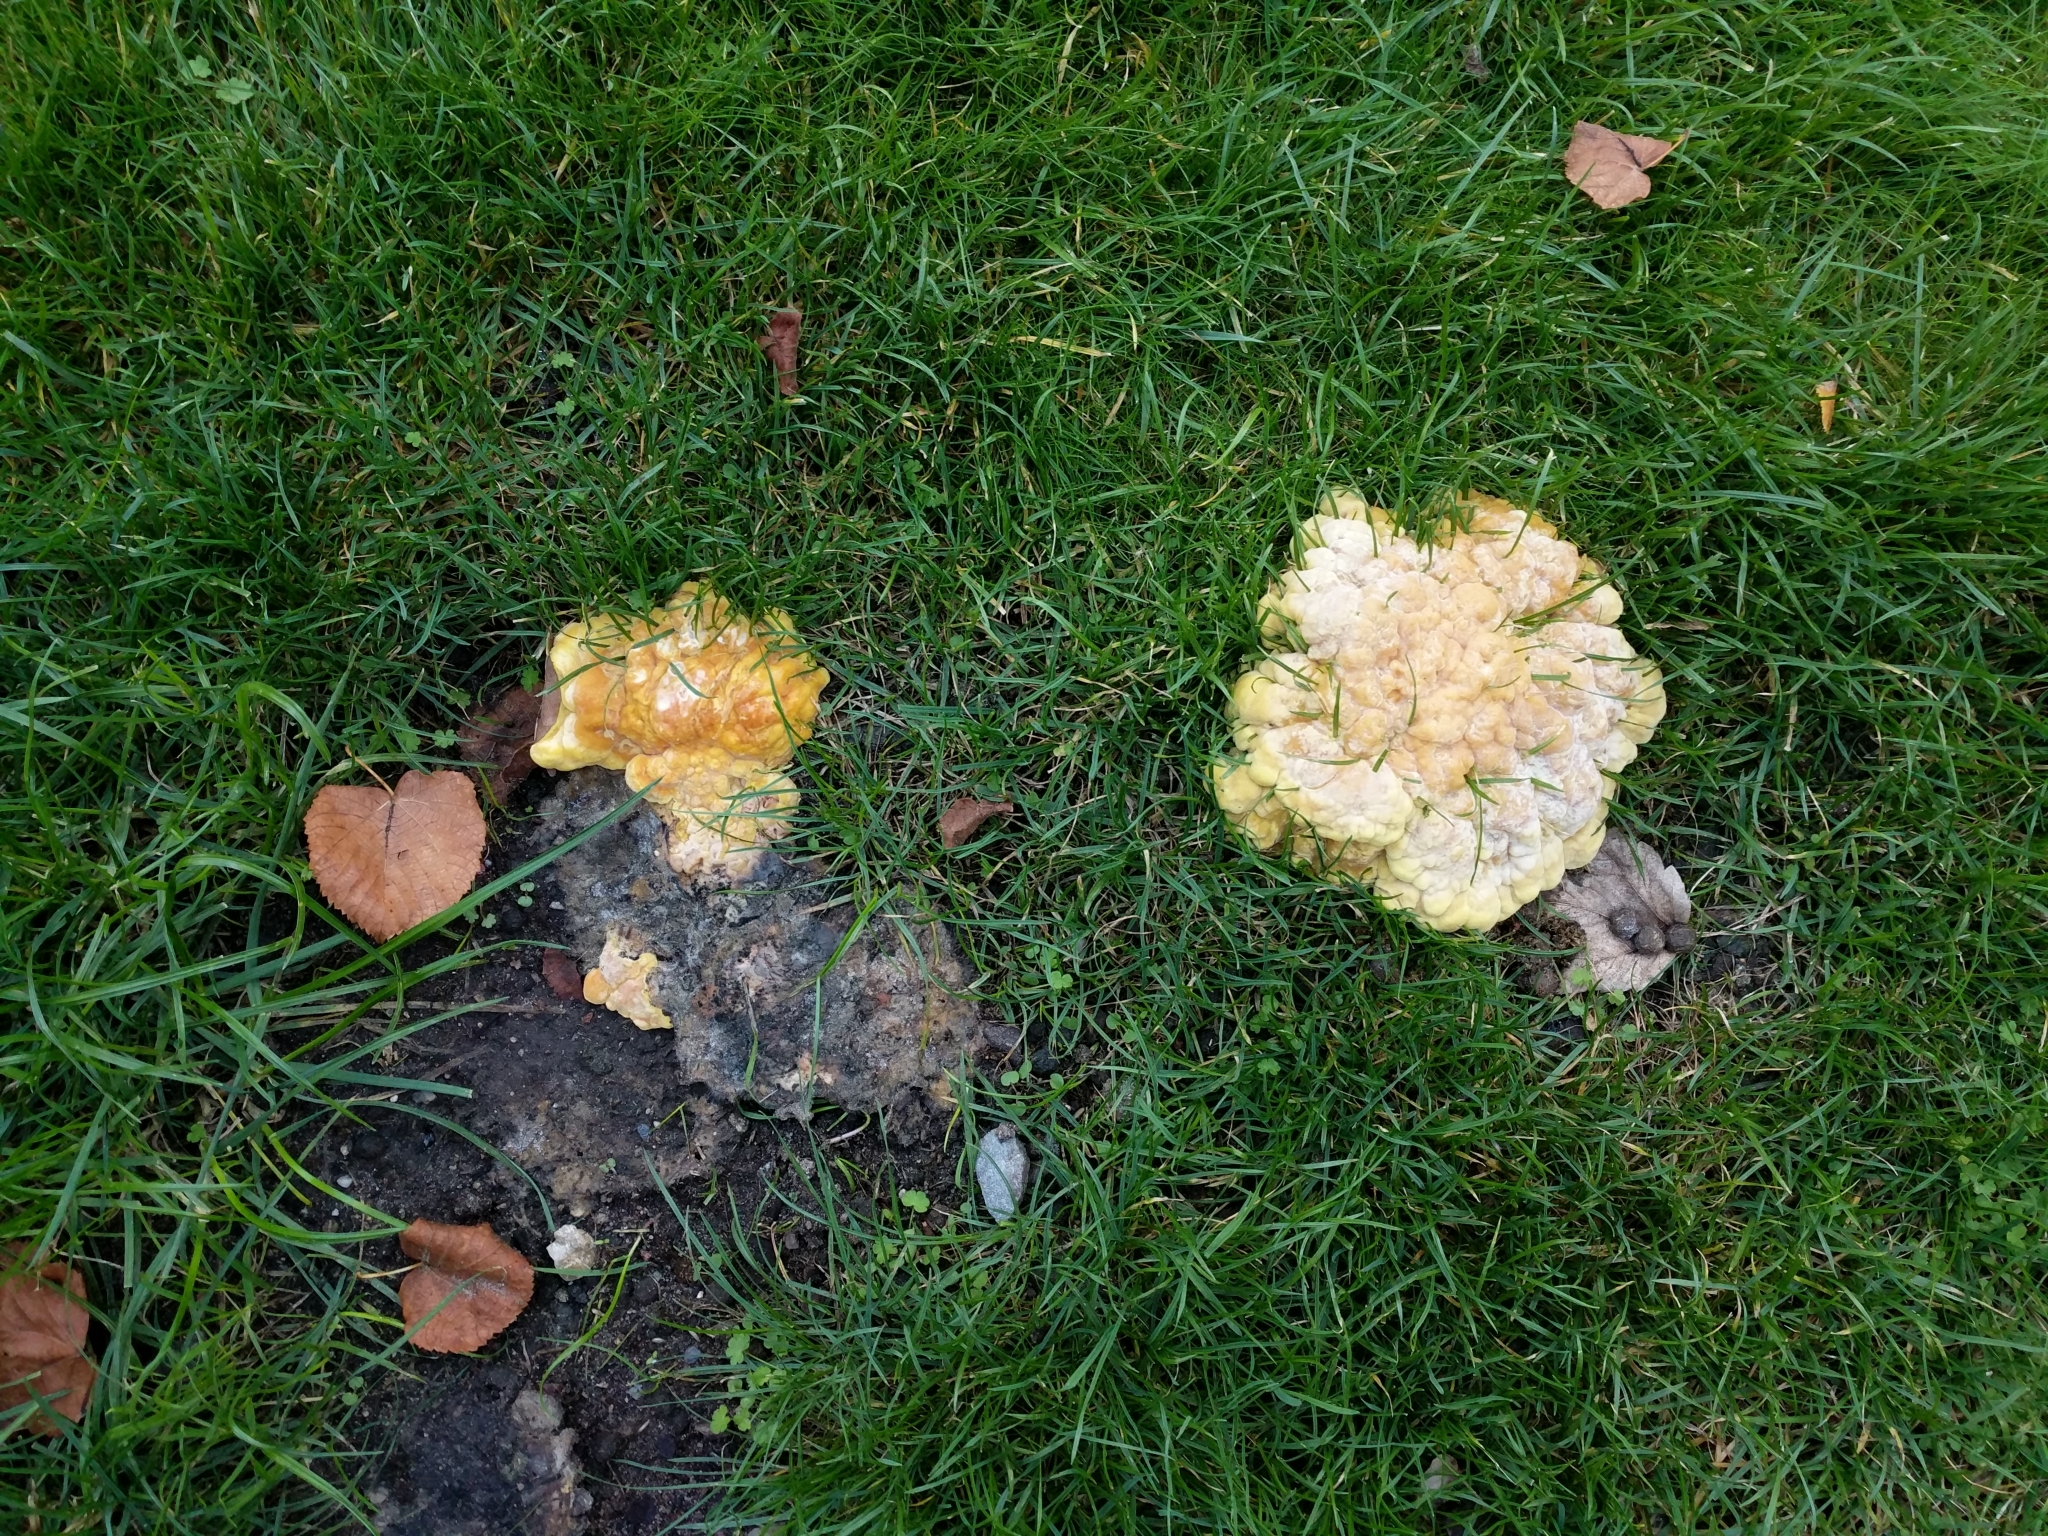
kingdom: Fungi
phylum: Basidiomycota
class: Agaricomycetes
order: Polyporales
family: Laetiporaceae
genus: Laetiporus
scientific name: Laetiporus sulphureus
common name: Chicken of the woods
